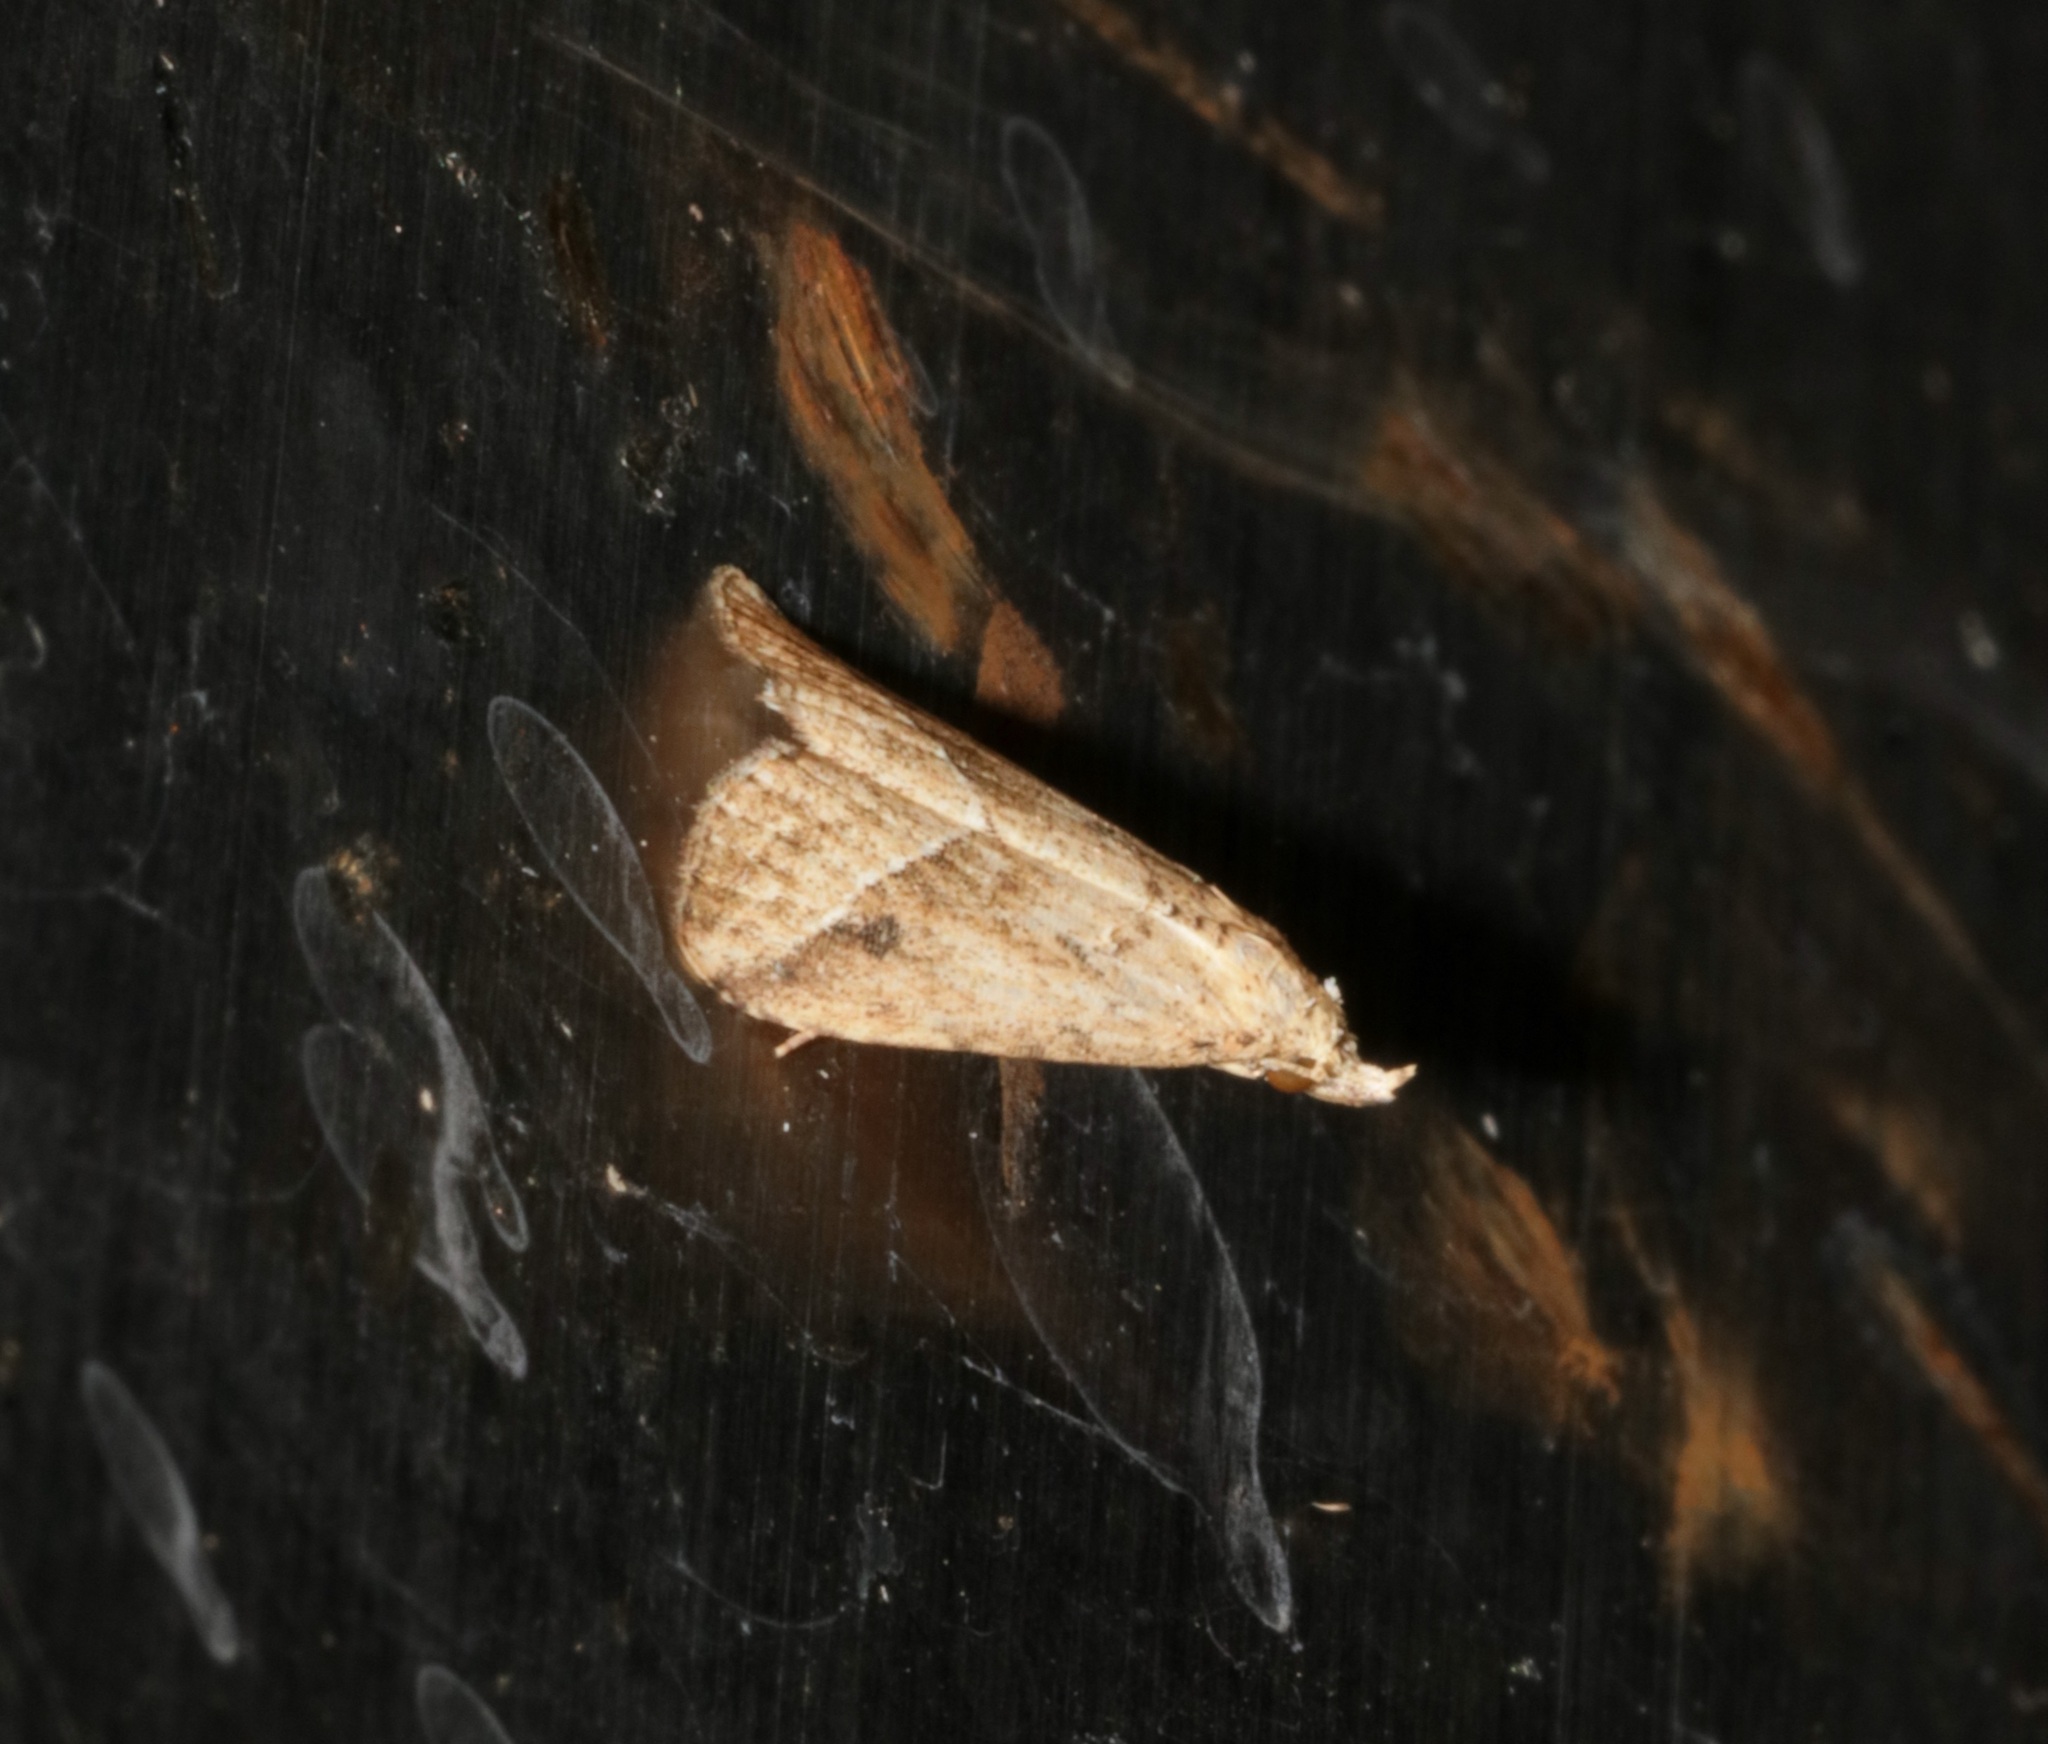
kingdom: Animalia
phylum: Arthropoda
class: Insecta
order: Lepidoptera
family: Erebidae
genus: Luceria
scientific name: Luceria striata
